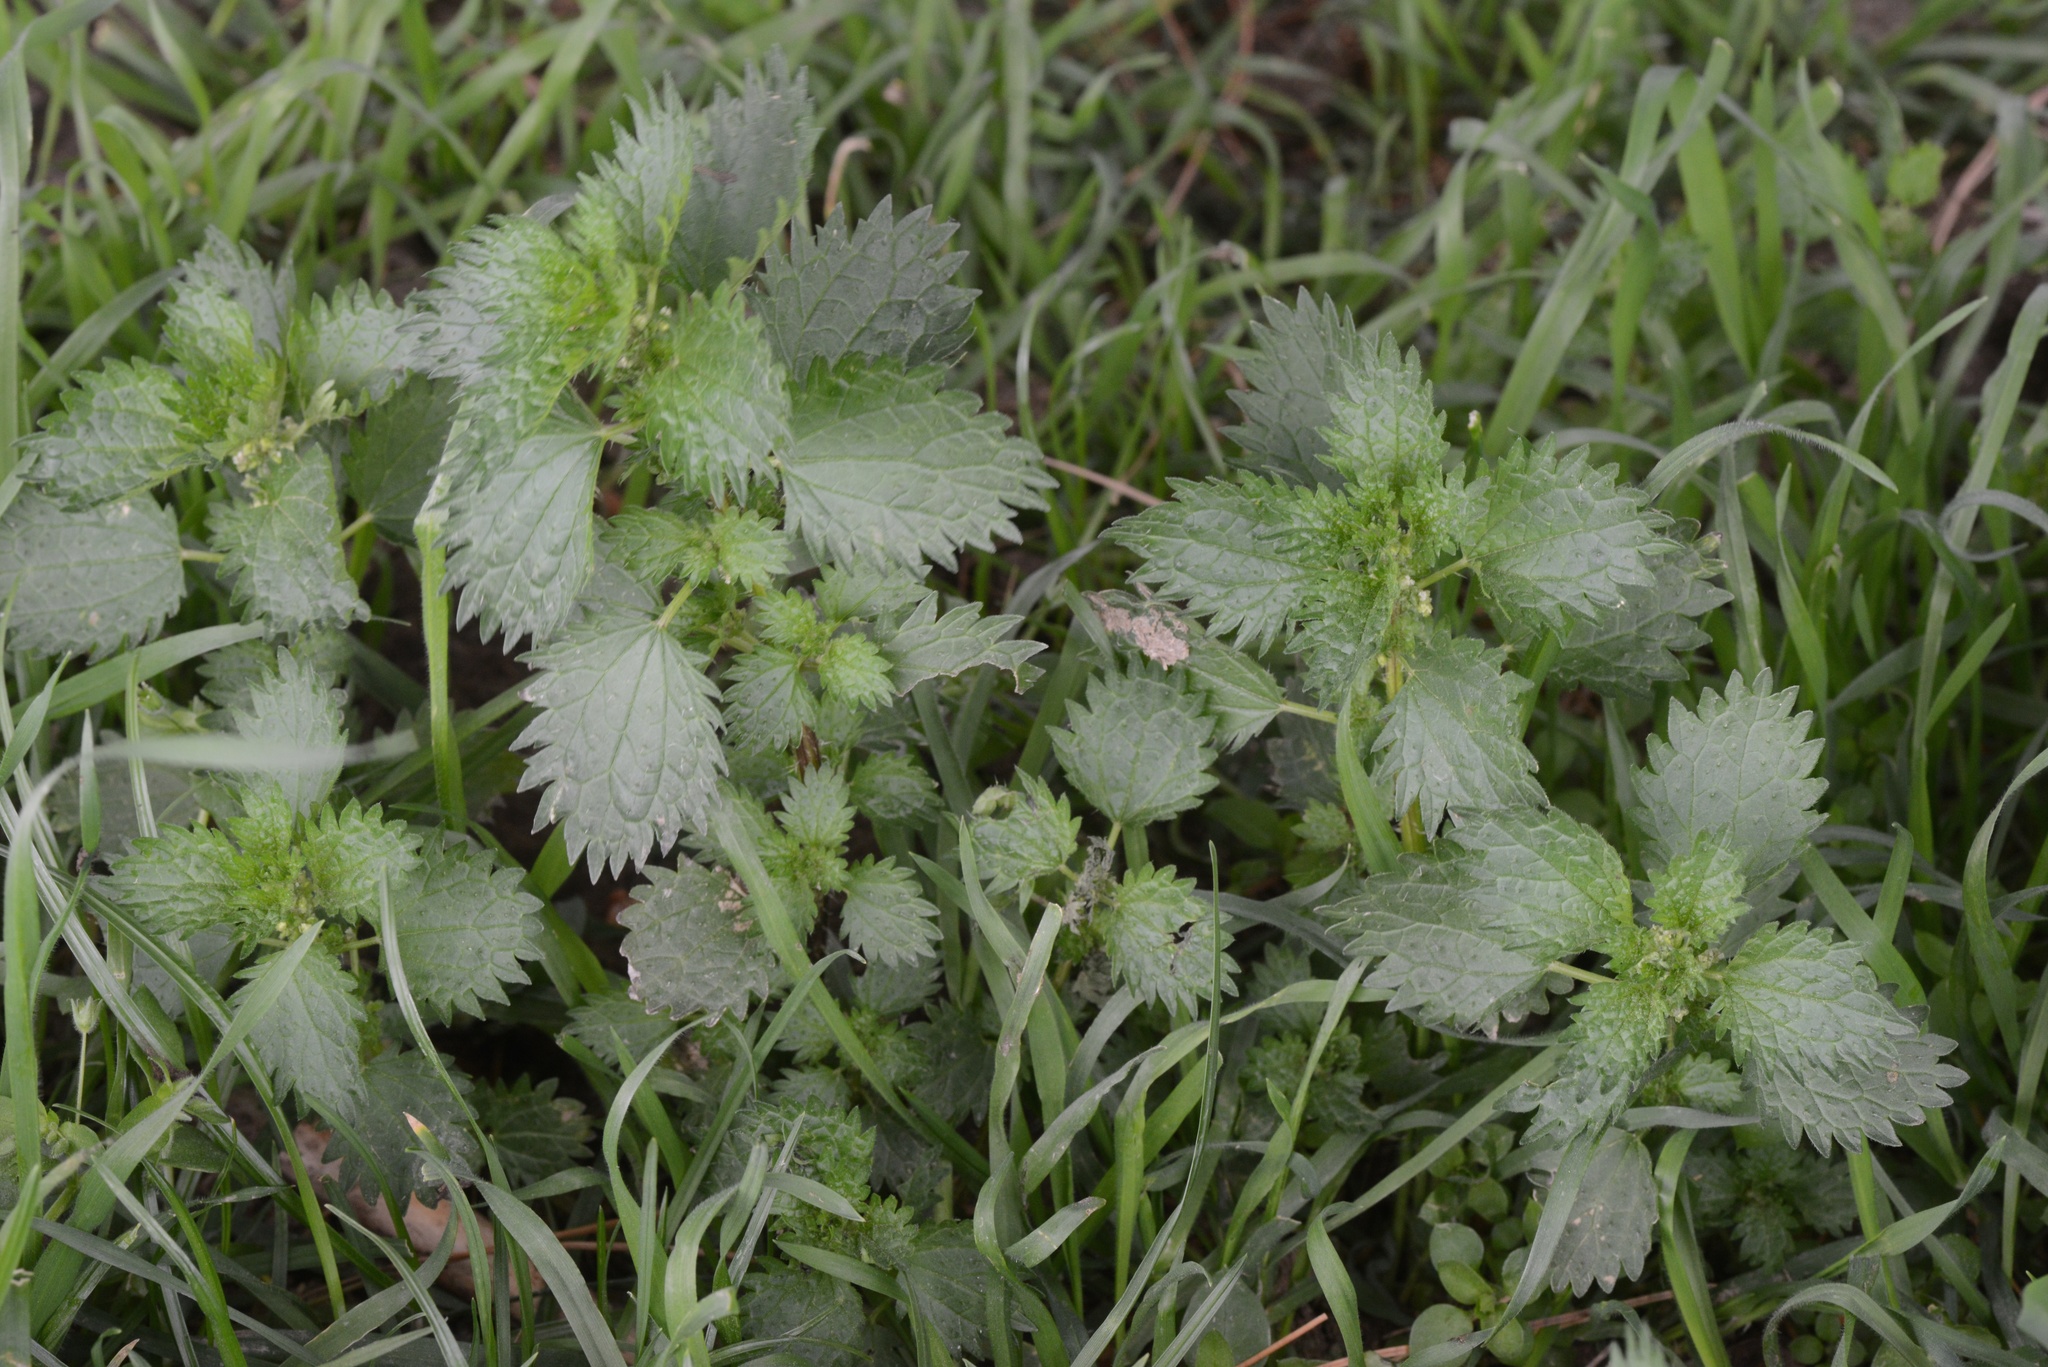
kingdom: Plantae
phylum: Tracheophyta
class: Magnoliopsida
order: Rosales
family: Urticaceae
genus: Urtica
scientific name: Urtica urens
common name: Dwarf nettle
